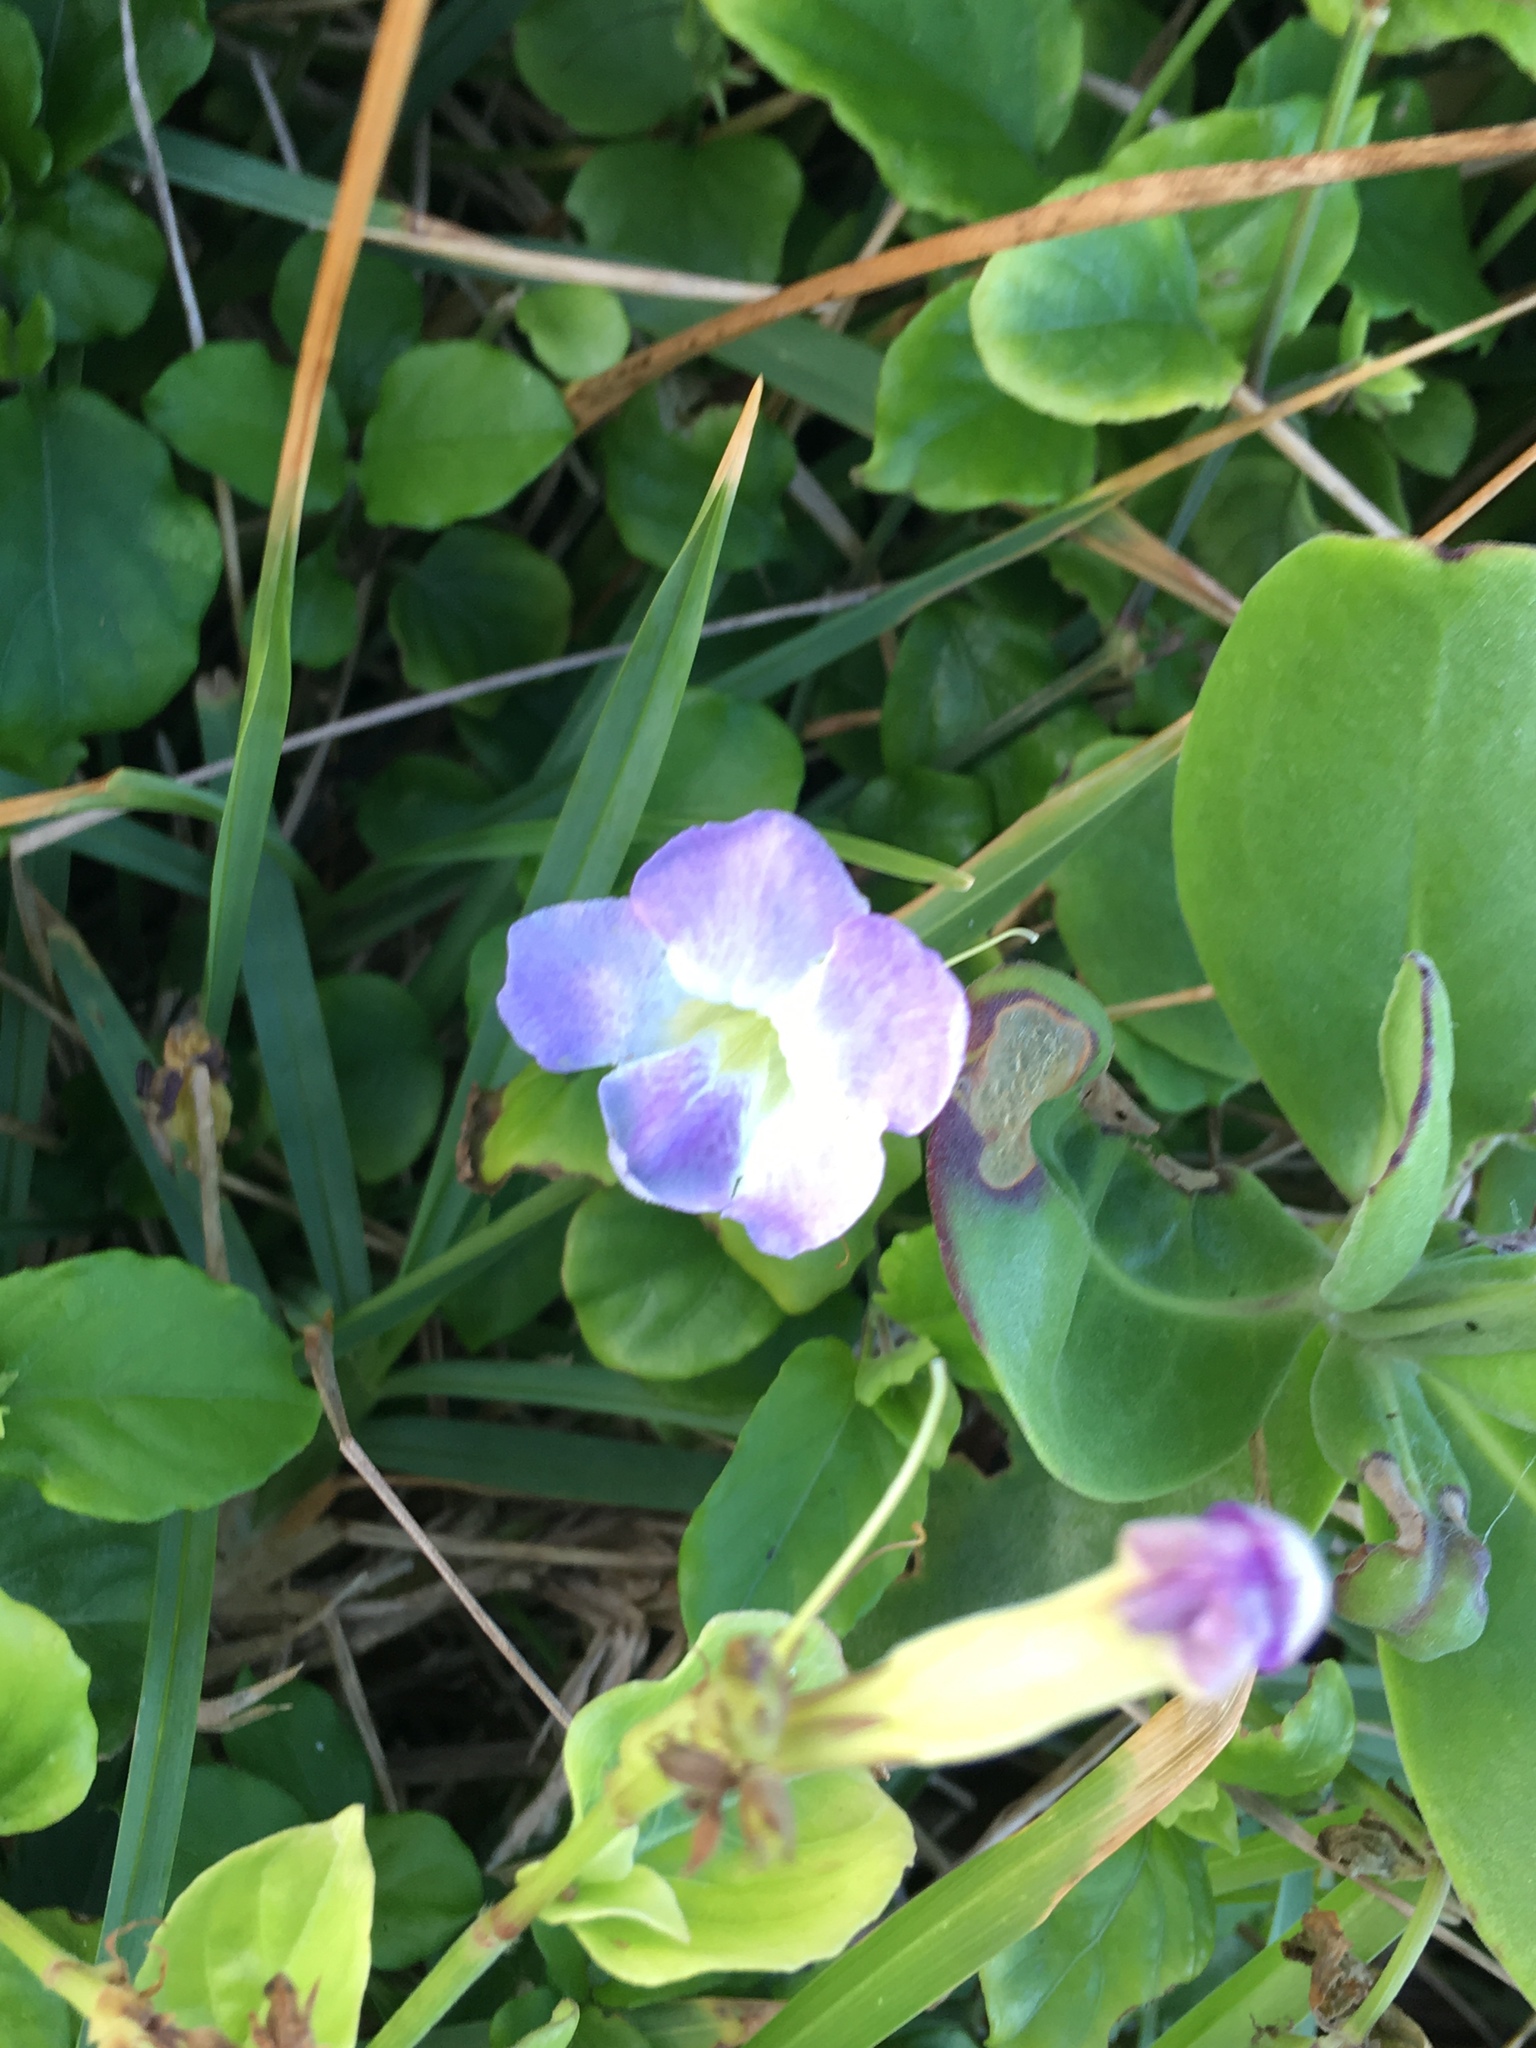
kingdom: Plantae
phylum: Tracheophyta
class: Magnoliopsida
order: Lamiales
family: Acanthaceae
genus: Asystasia
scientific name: Asystasia gangetica
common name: Chinese violet
